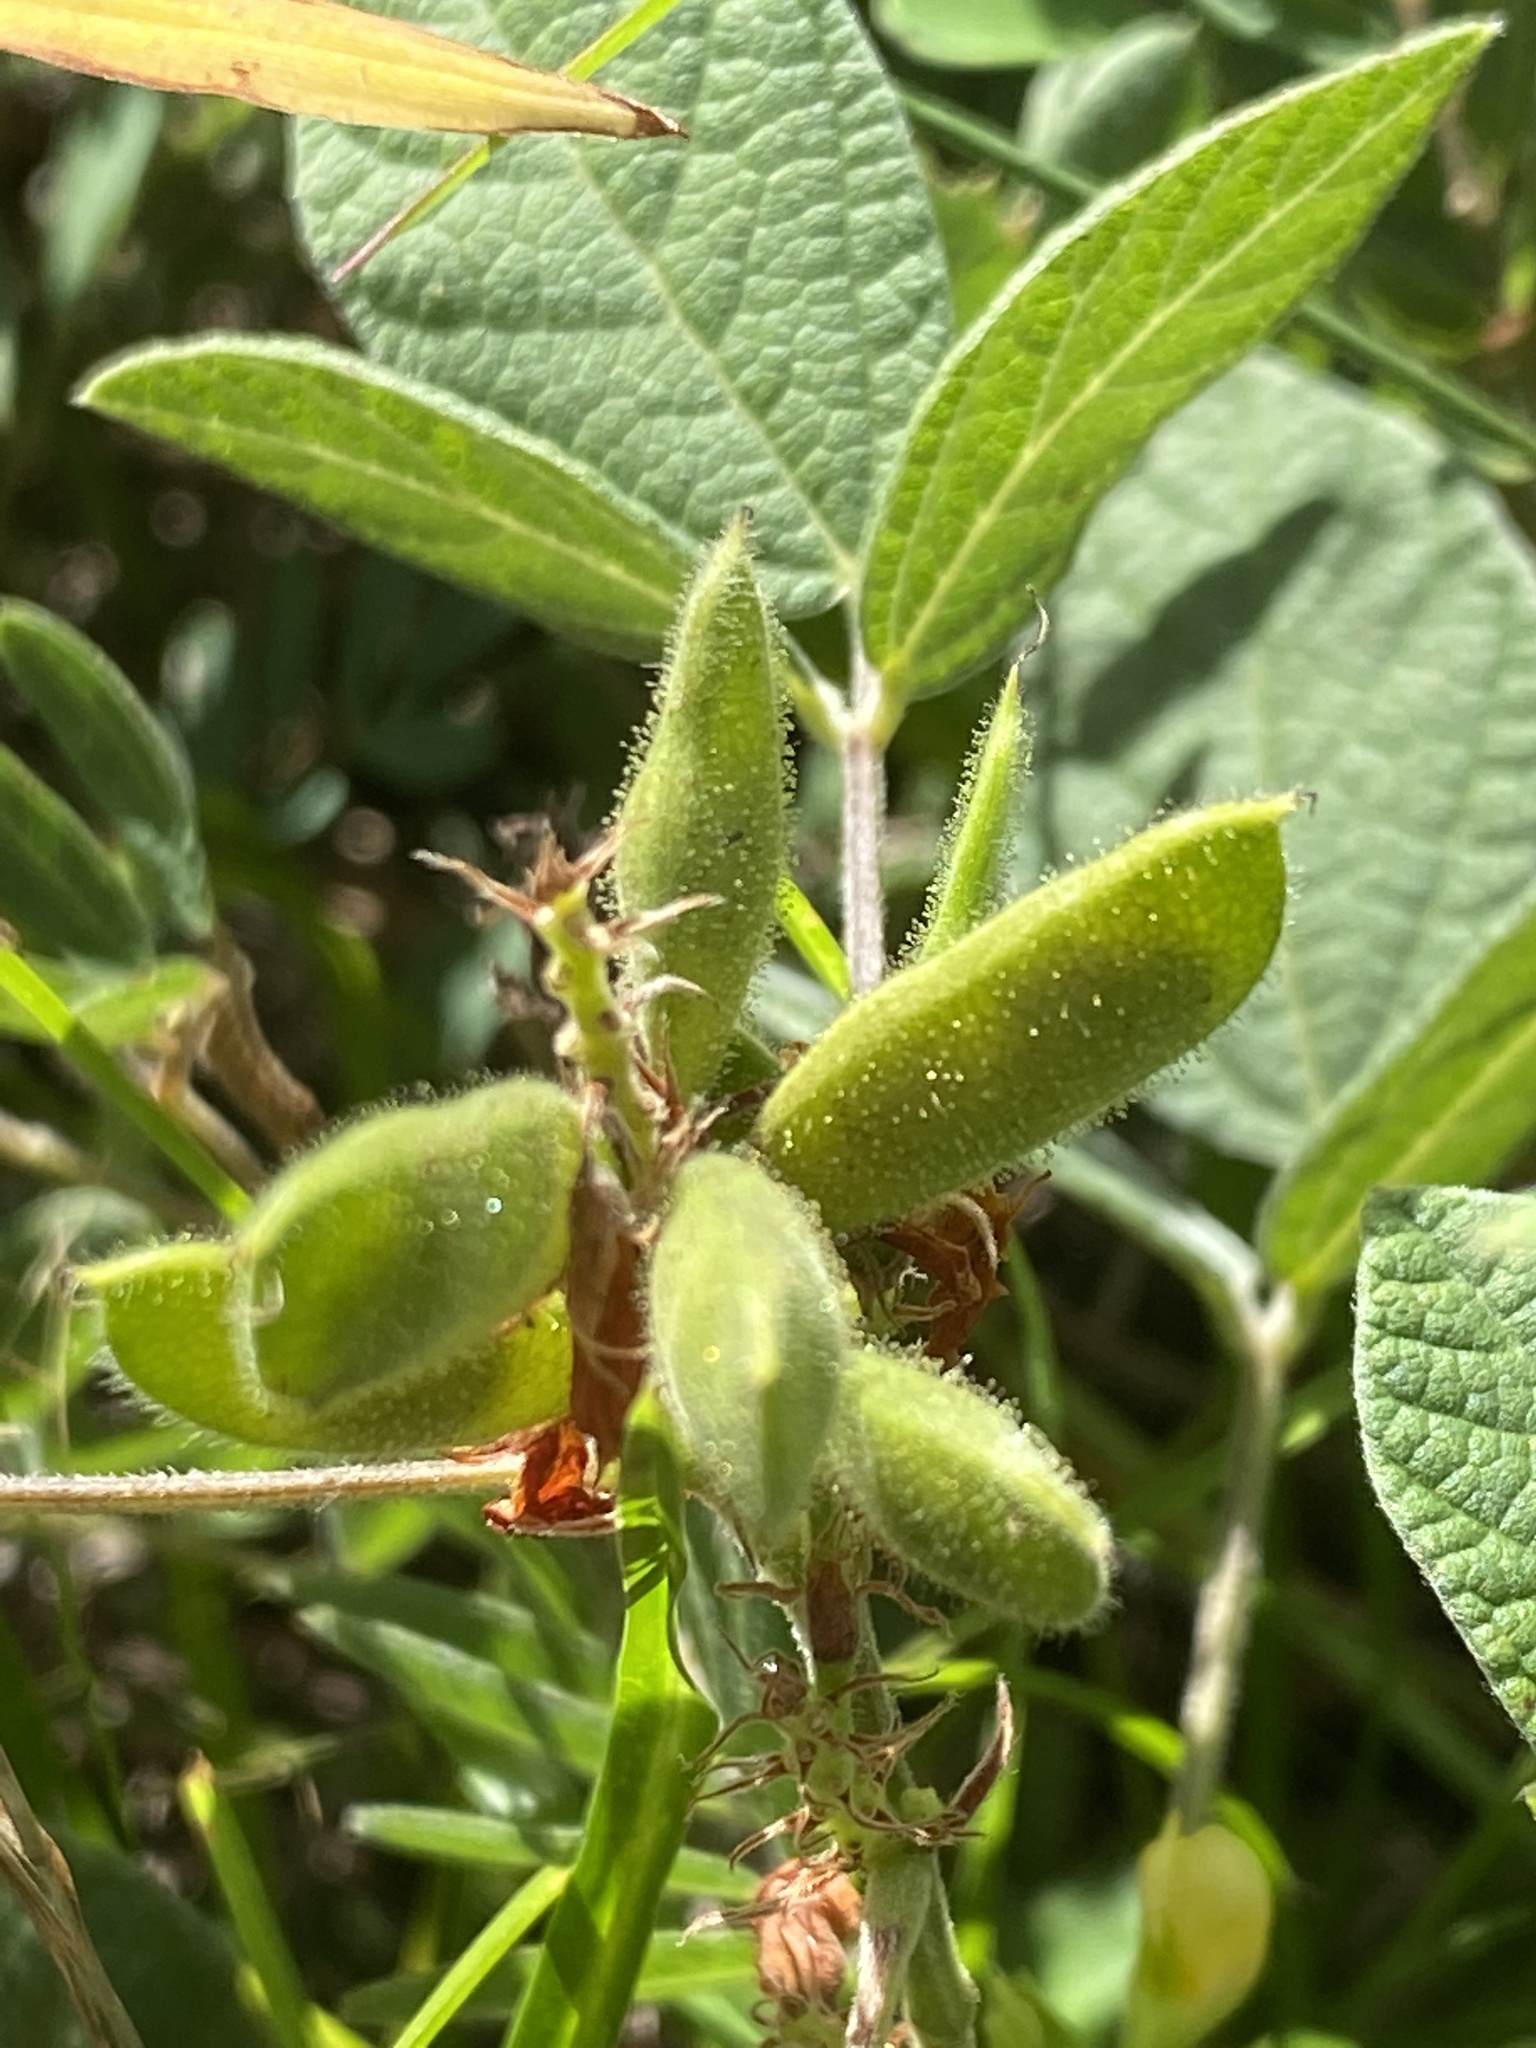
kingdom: Plantae
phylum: Tracheophyta
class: Magnoliopsida
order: Fabales
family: Fabaceae
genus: Rhynchosia
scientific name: Rhynchosia tomentosa
